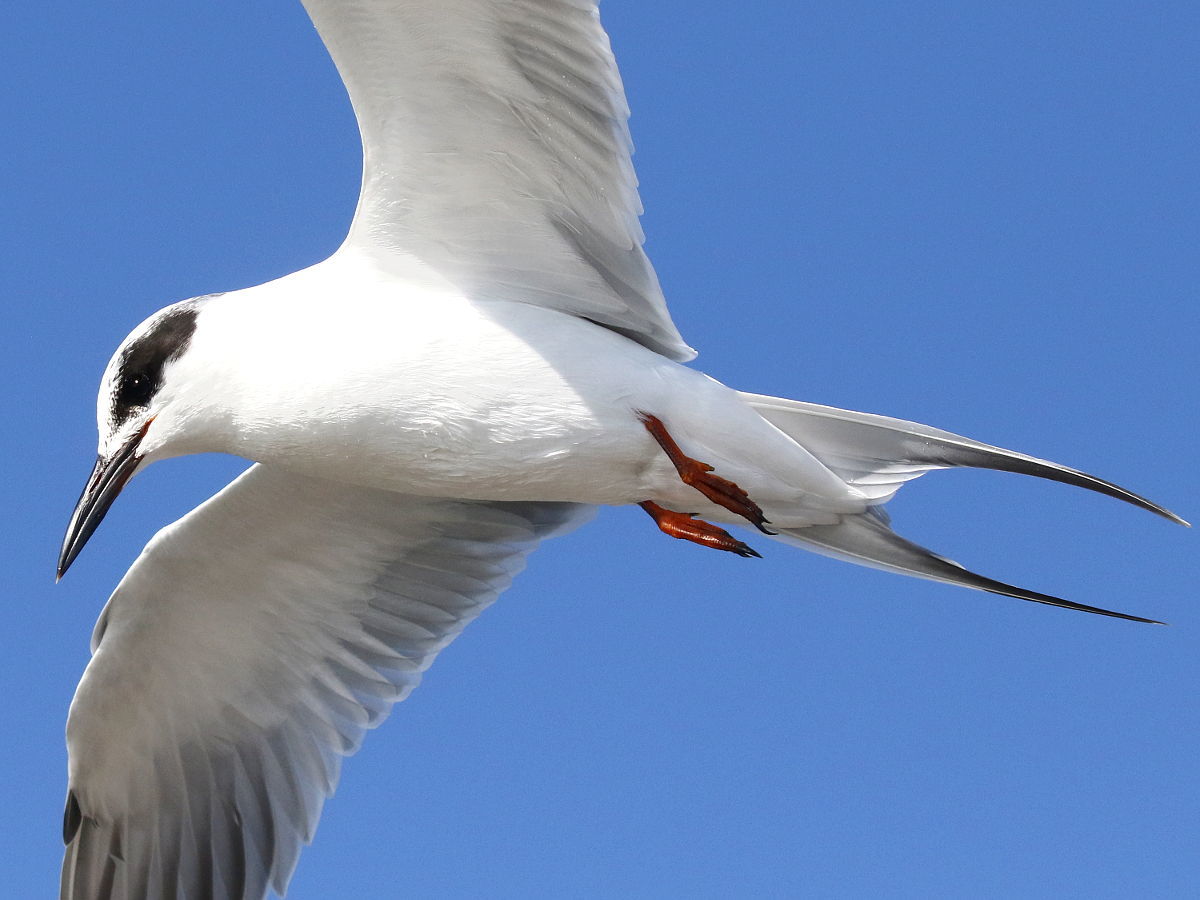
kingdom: Animalia
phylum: Chordata
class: Aves
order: Charadriiformes
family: Laridae
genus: Sterna
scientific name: Sterna forsteri
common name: Forster's tern
